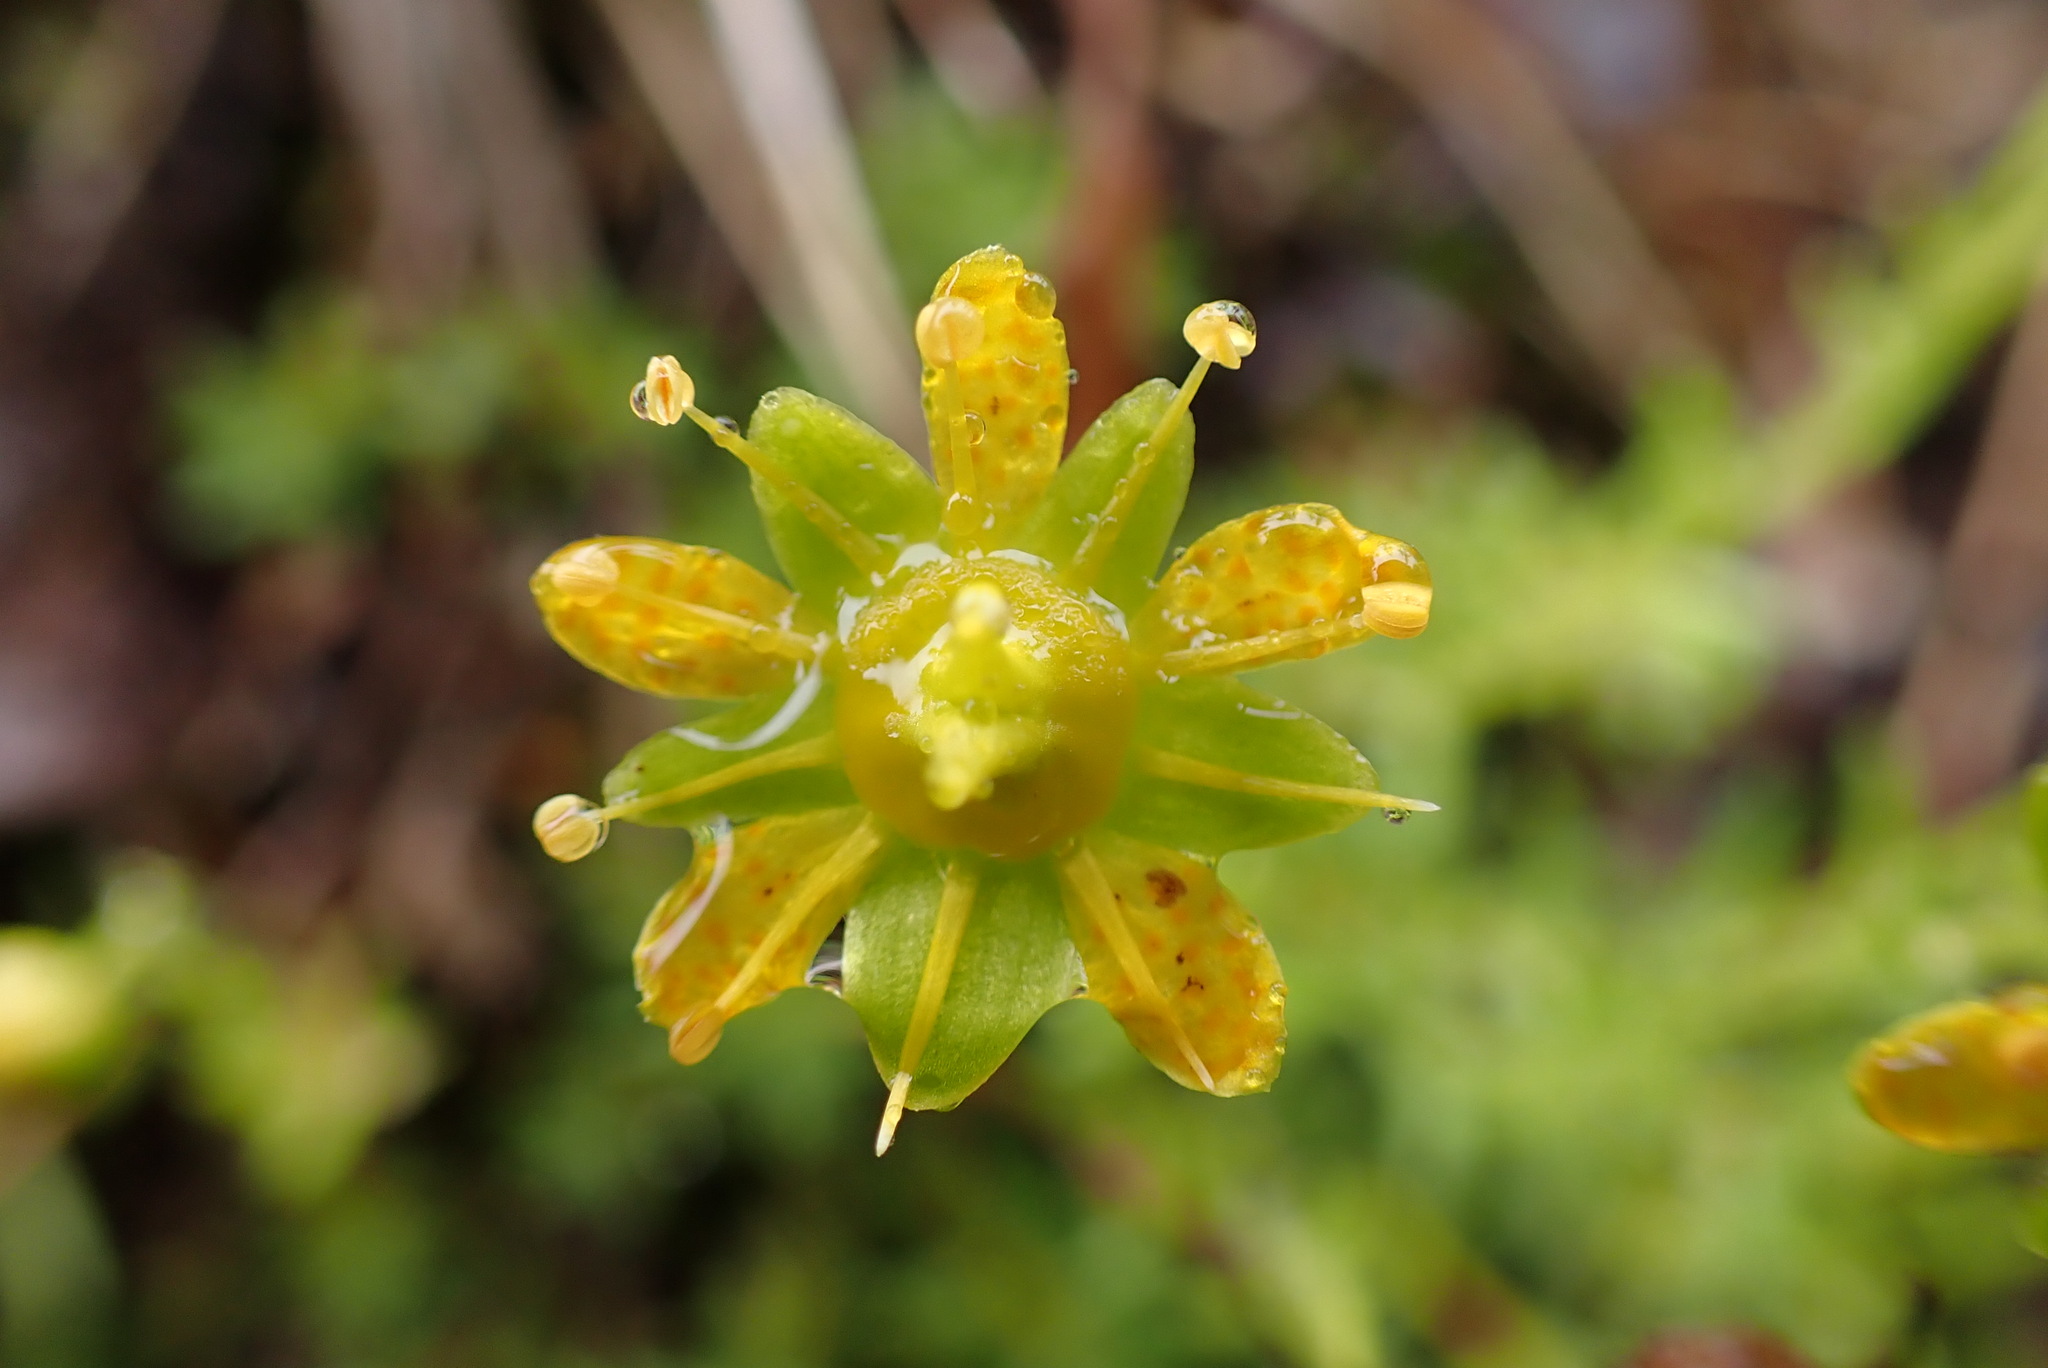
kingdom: Plantae
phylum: Tracheophyta
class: Magnoliopsida
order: Saxifragales
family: Saxifragaceae
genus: Saxifraga
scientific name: Saxifraga aizoides
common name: Yellow mountain saxifrage
